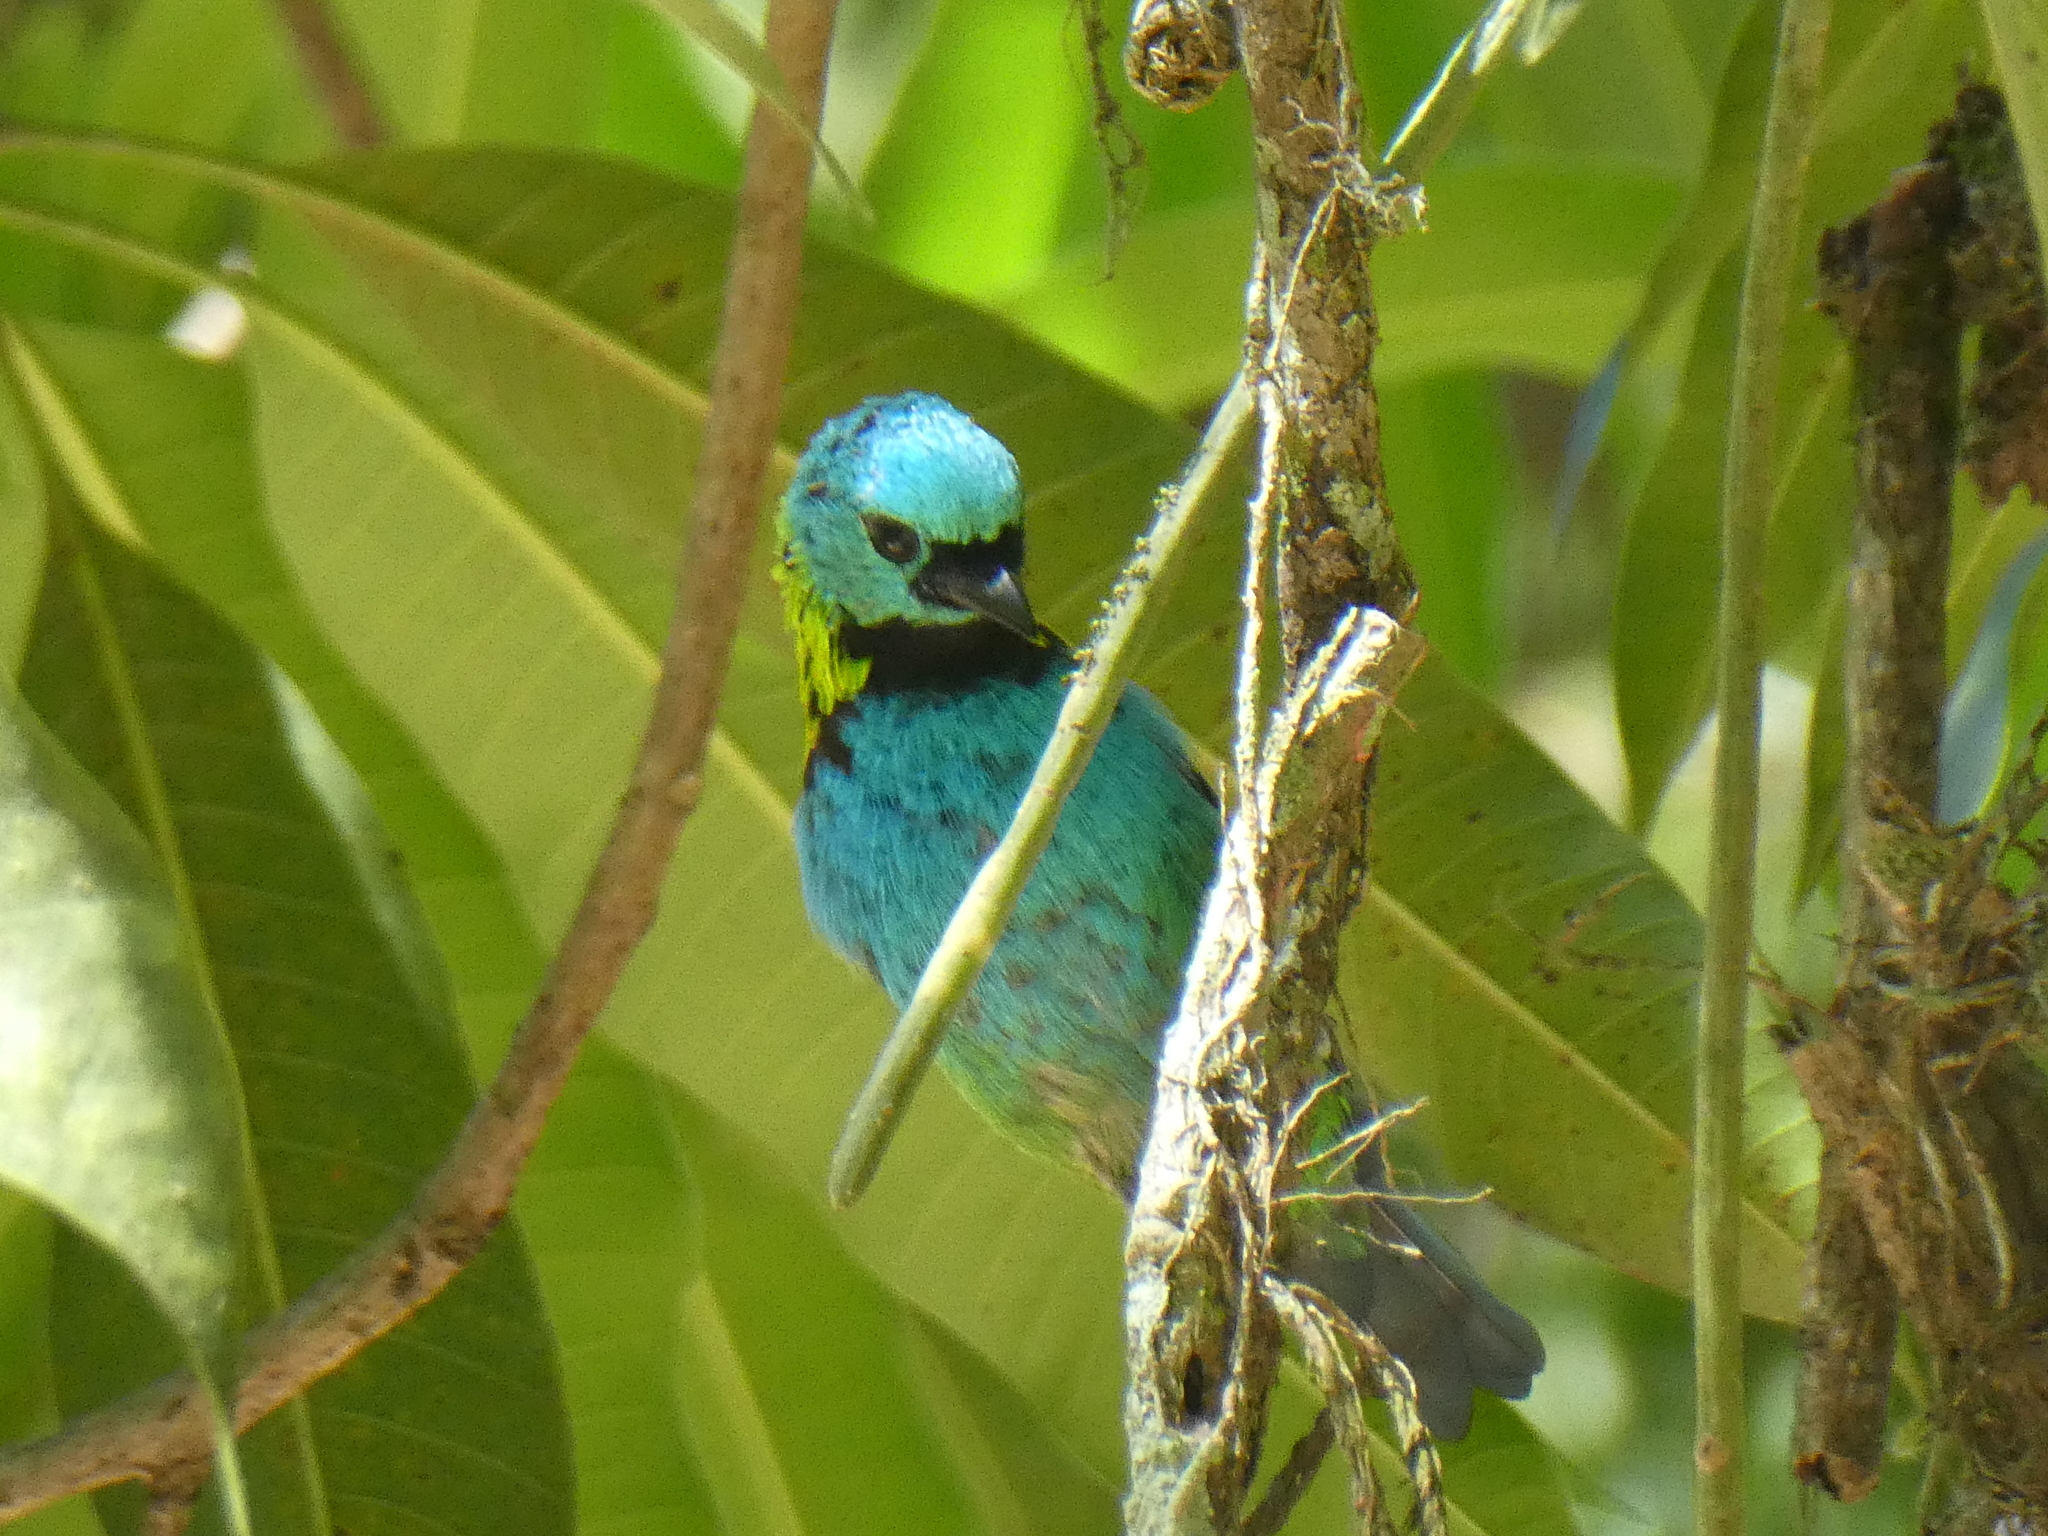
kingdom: Animalia
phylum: Chordata
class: Aves
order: Passeriformes
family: Thraupidae
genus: Tangara
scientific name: Tangara seledon
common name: Green-headed tanager
